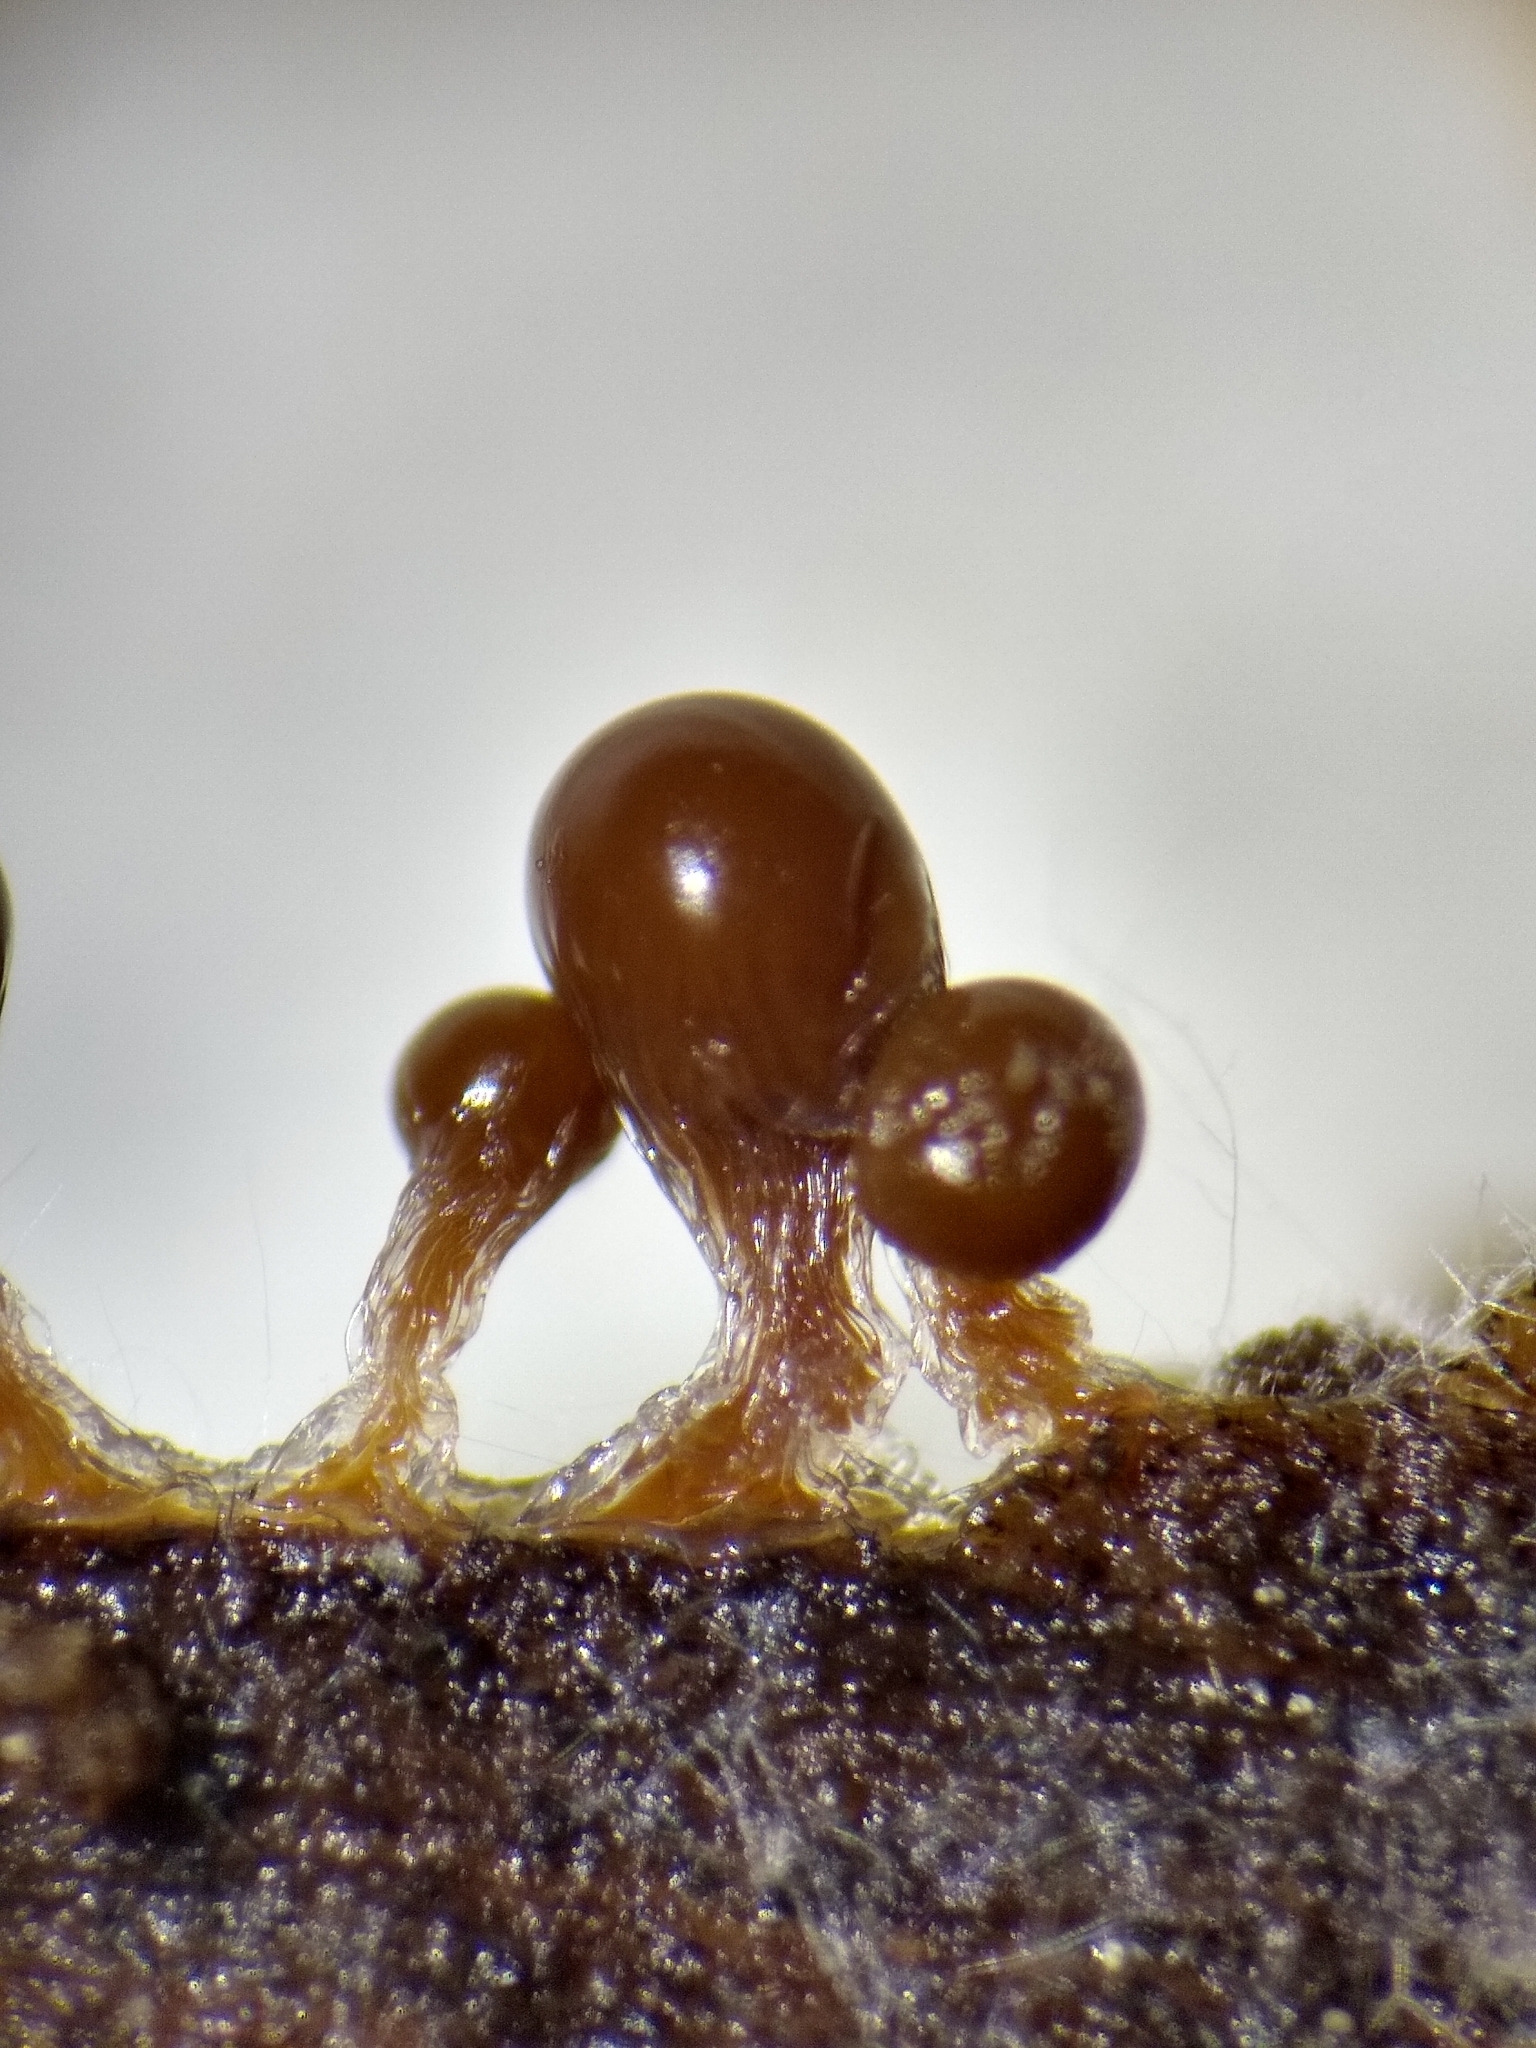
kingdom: Protozoa
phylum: Mycetozoa
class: Myxomycetes
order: Trichiales
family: Trichiaceae
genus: Trichia
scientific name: Trichia crateriformis
